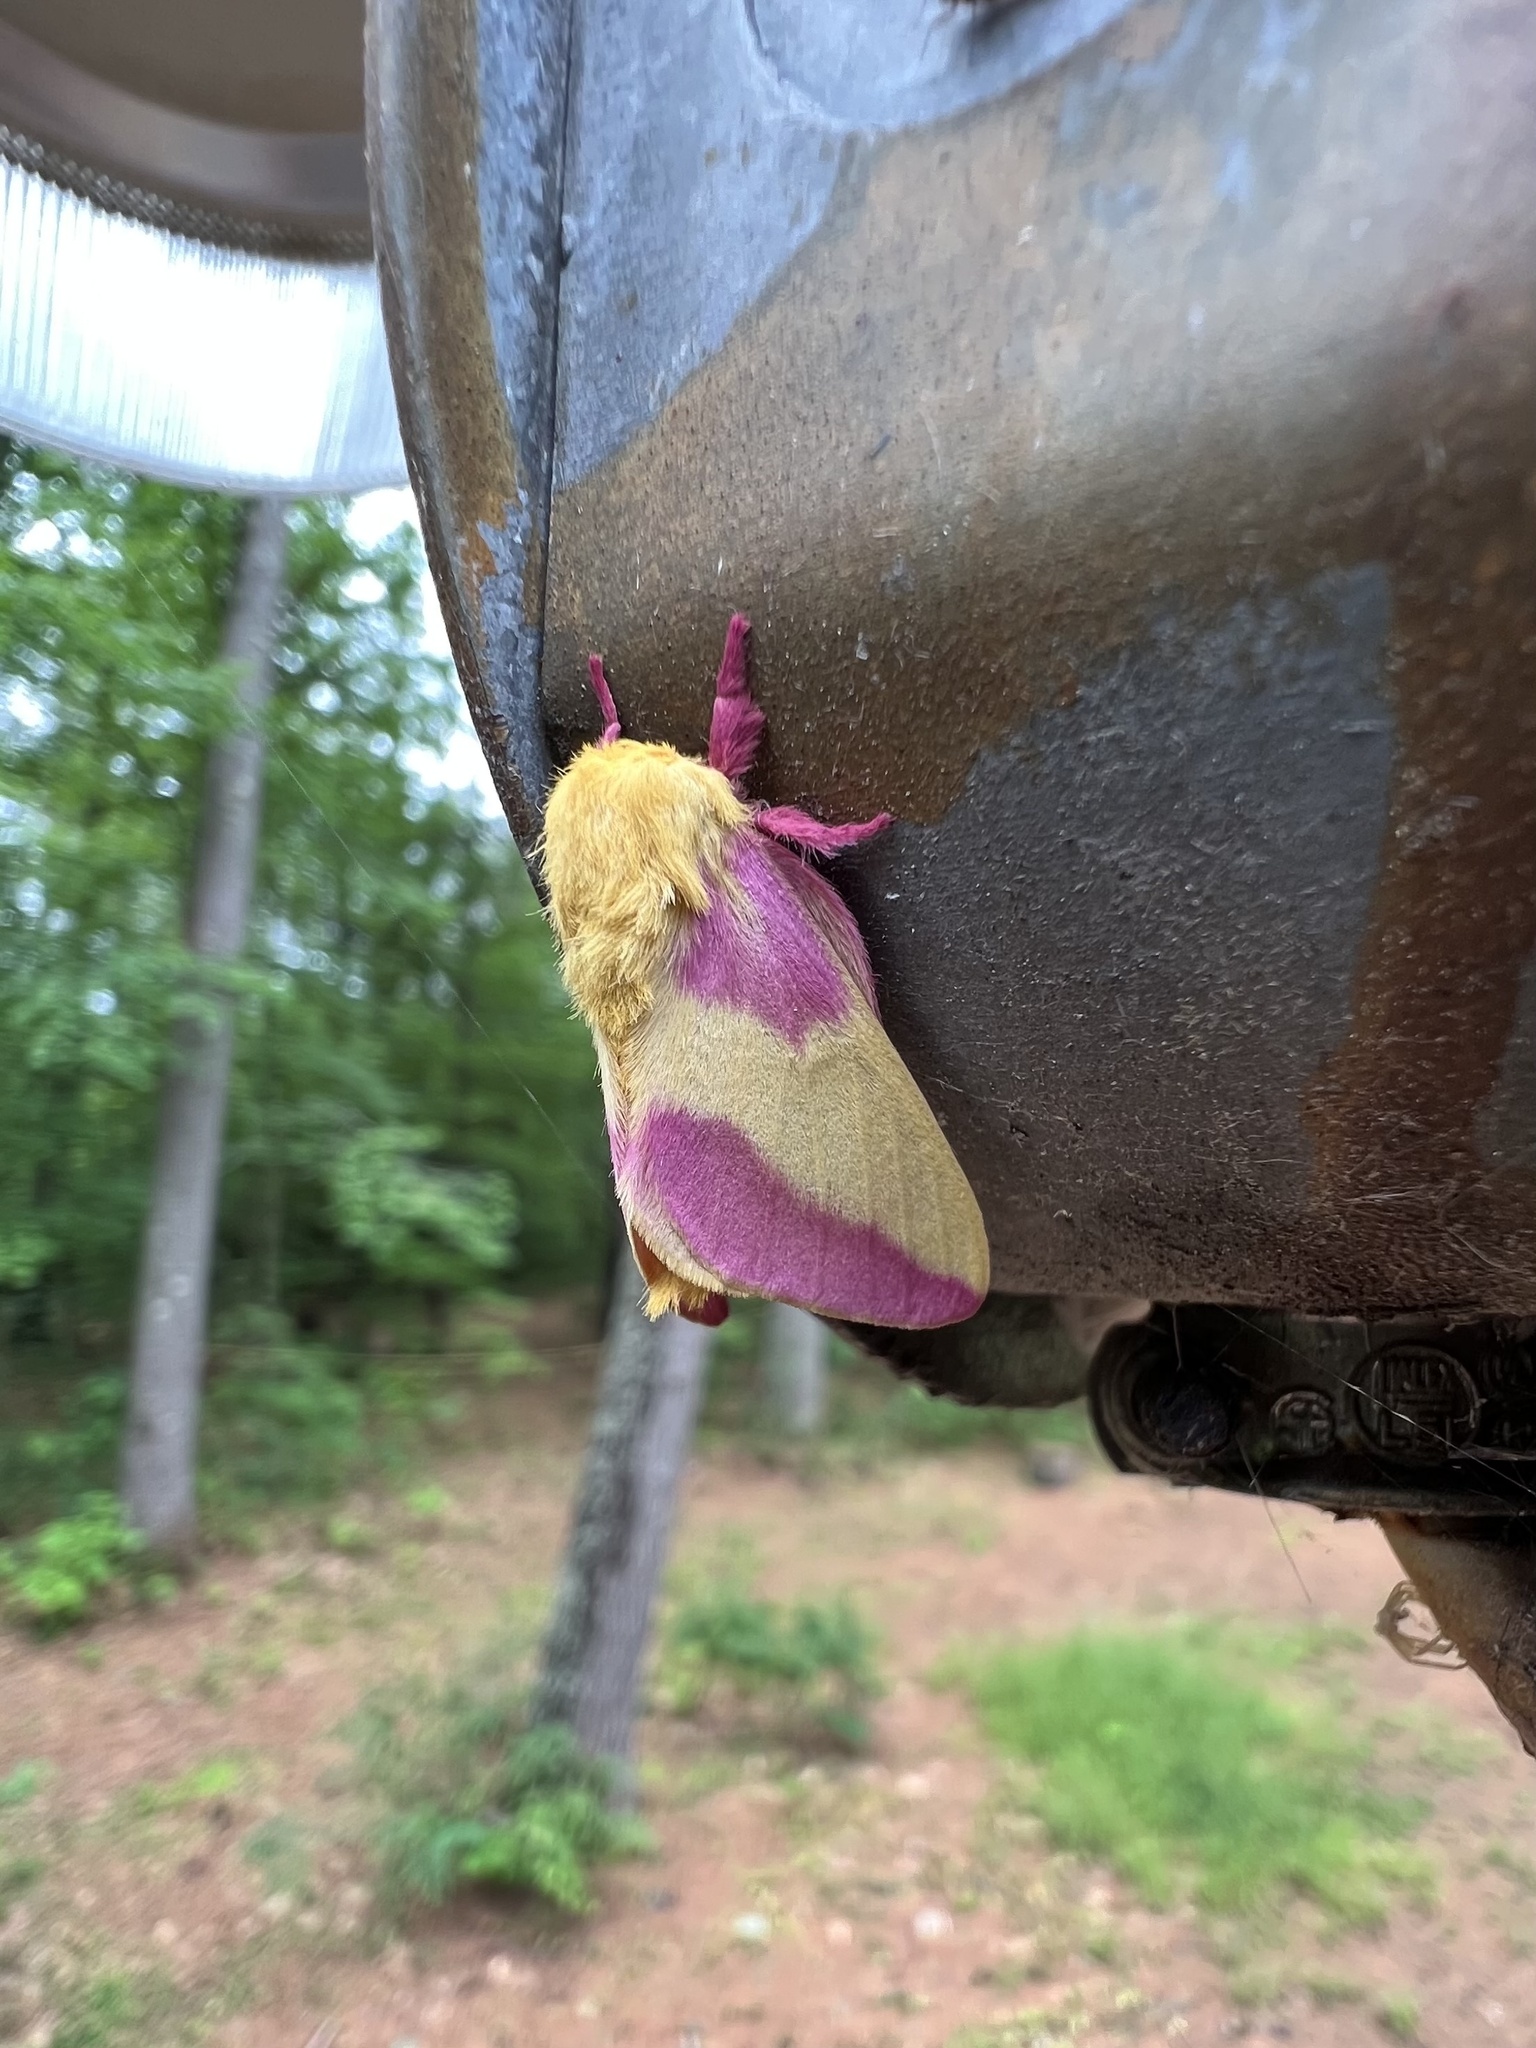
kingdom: Animalia
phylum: Arthropoda
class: Insecta
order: Lepidoptera
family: Saturniidae
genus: Dryocampa
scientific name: Dryocampa rubicunda
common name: Rosy maple moth
